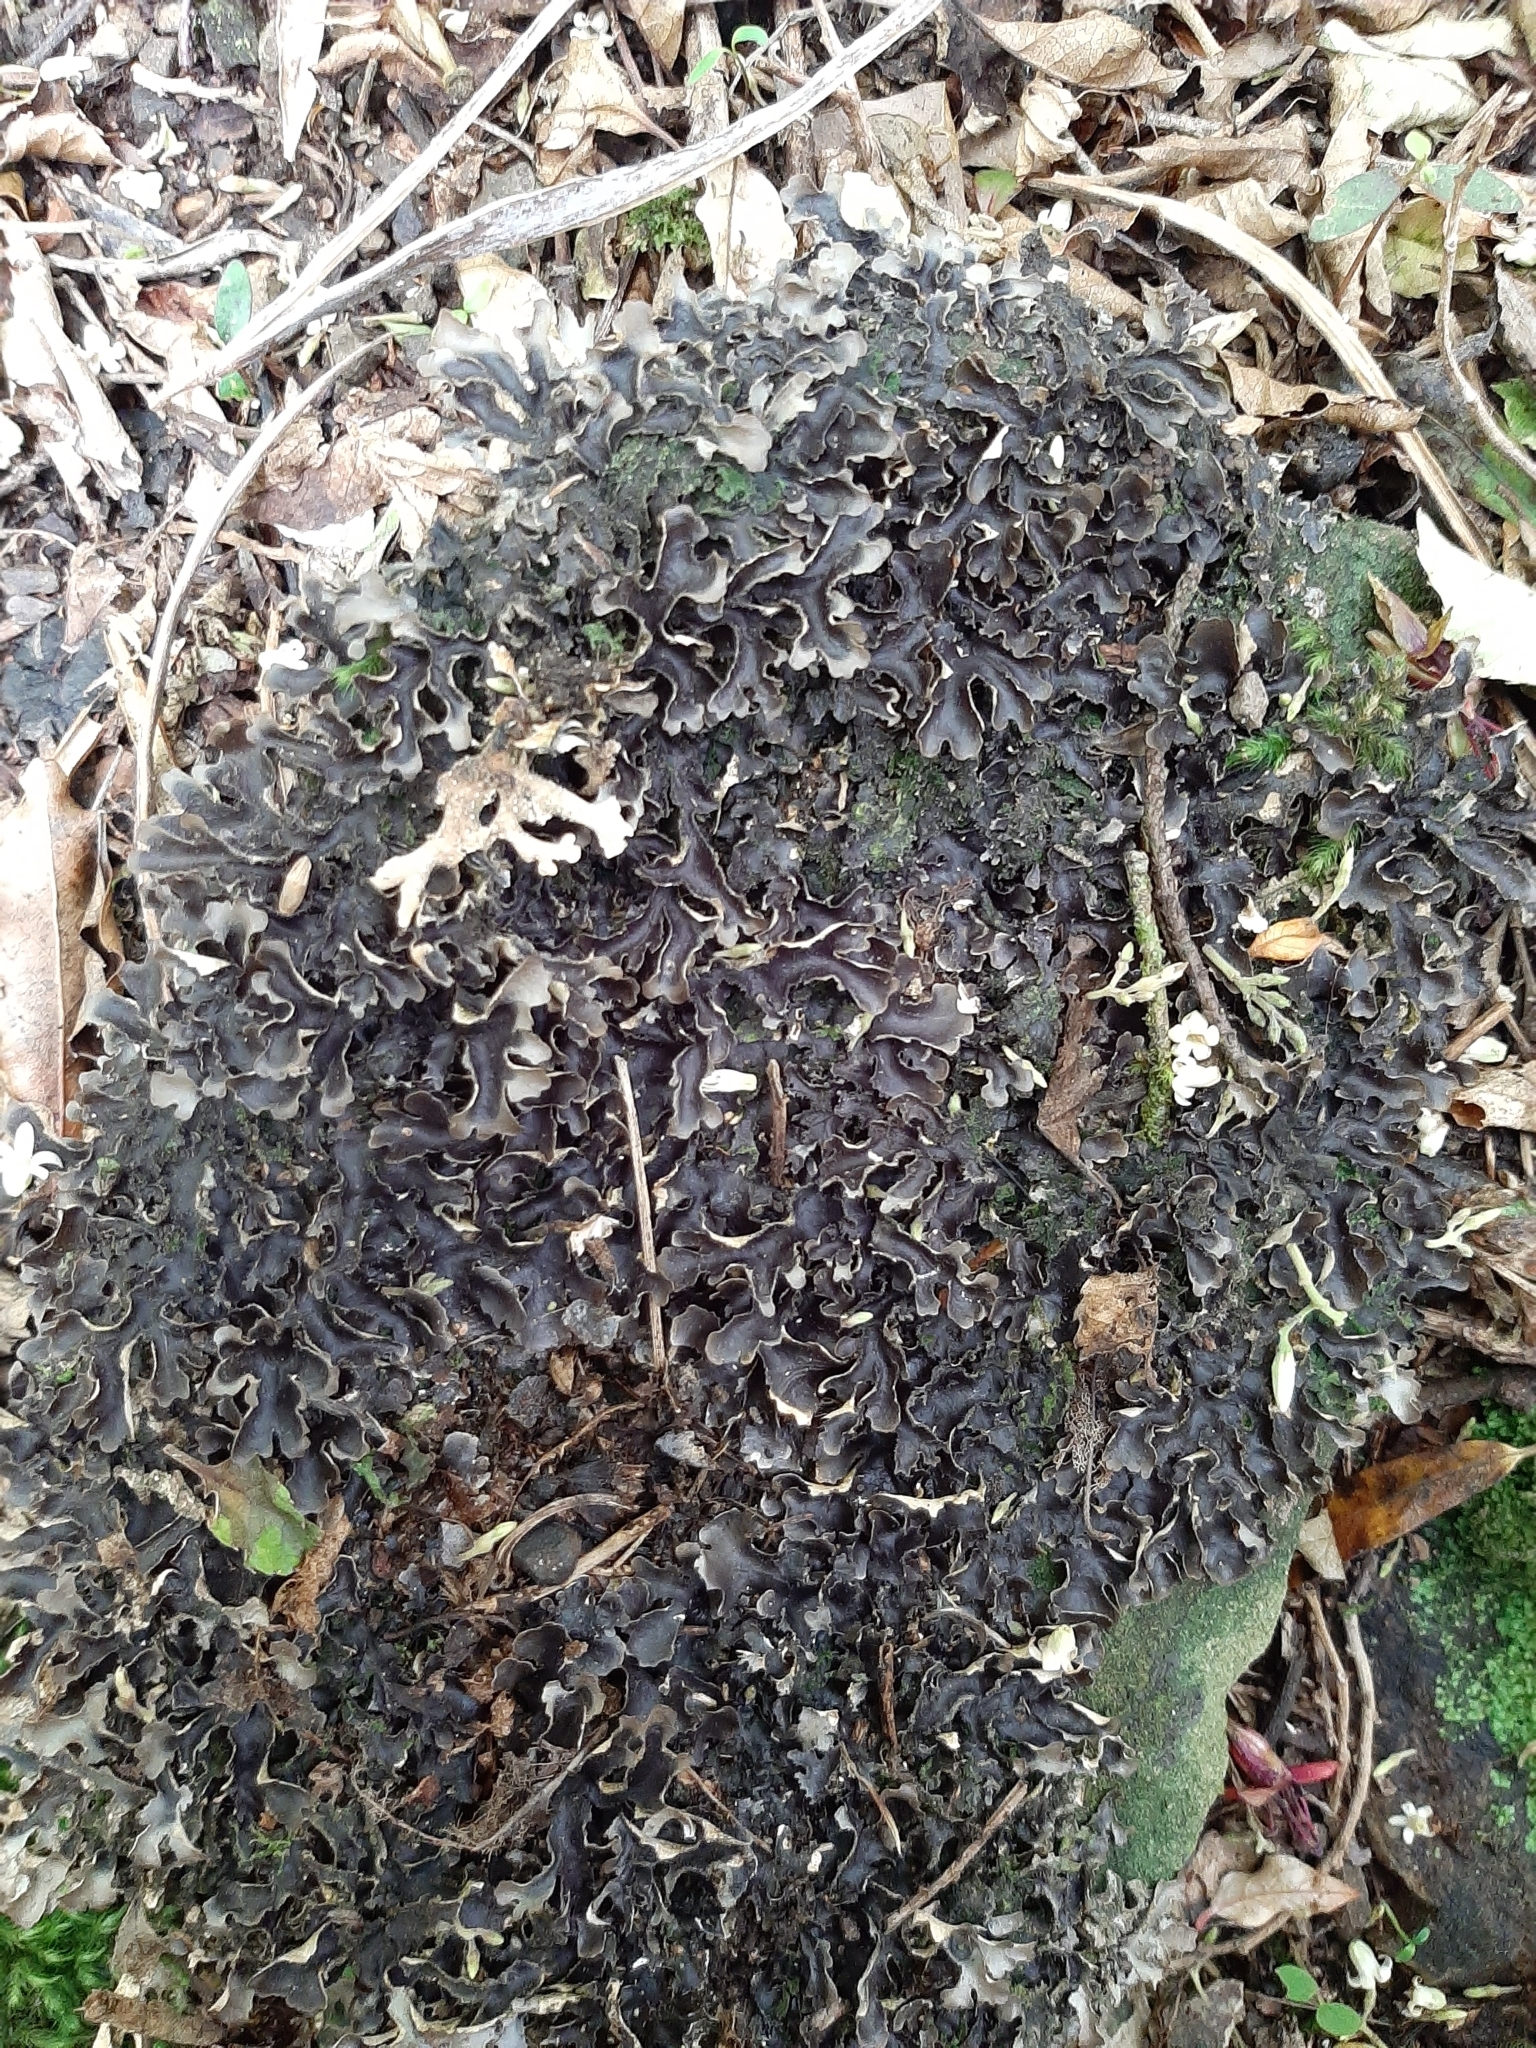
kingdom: Fungi
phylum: Ascomycota
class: Lecanoromycetes
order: Peltigerales
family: Lobariaceae
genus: Pseudocyphellaria
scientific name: Pseudocyphellaria dissimilis
